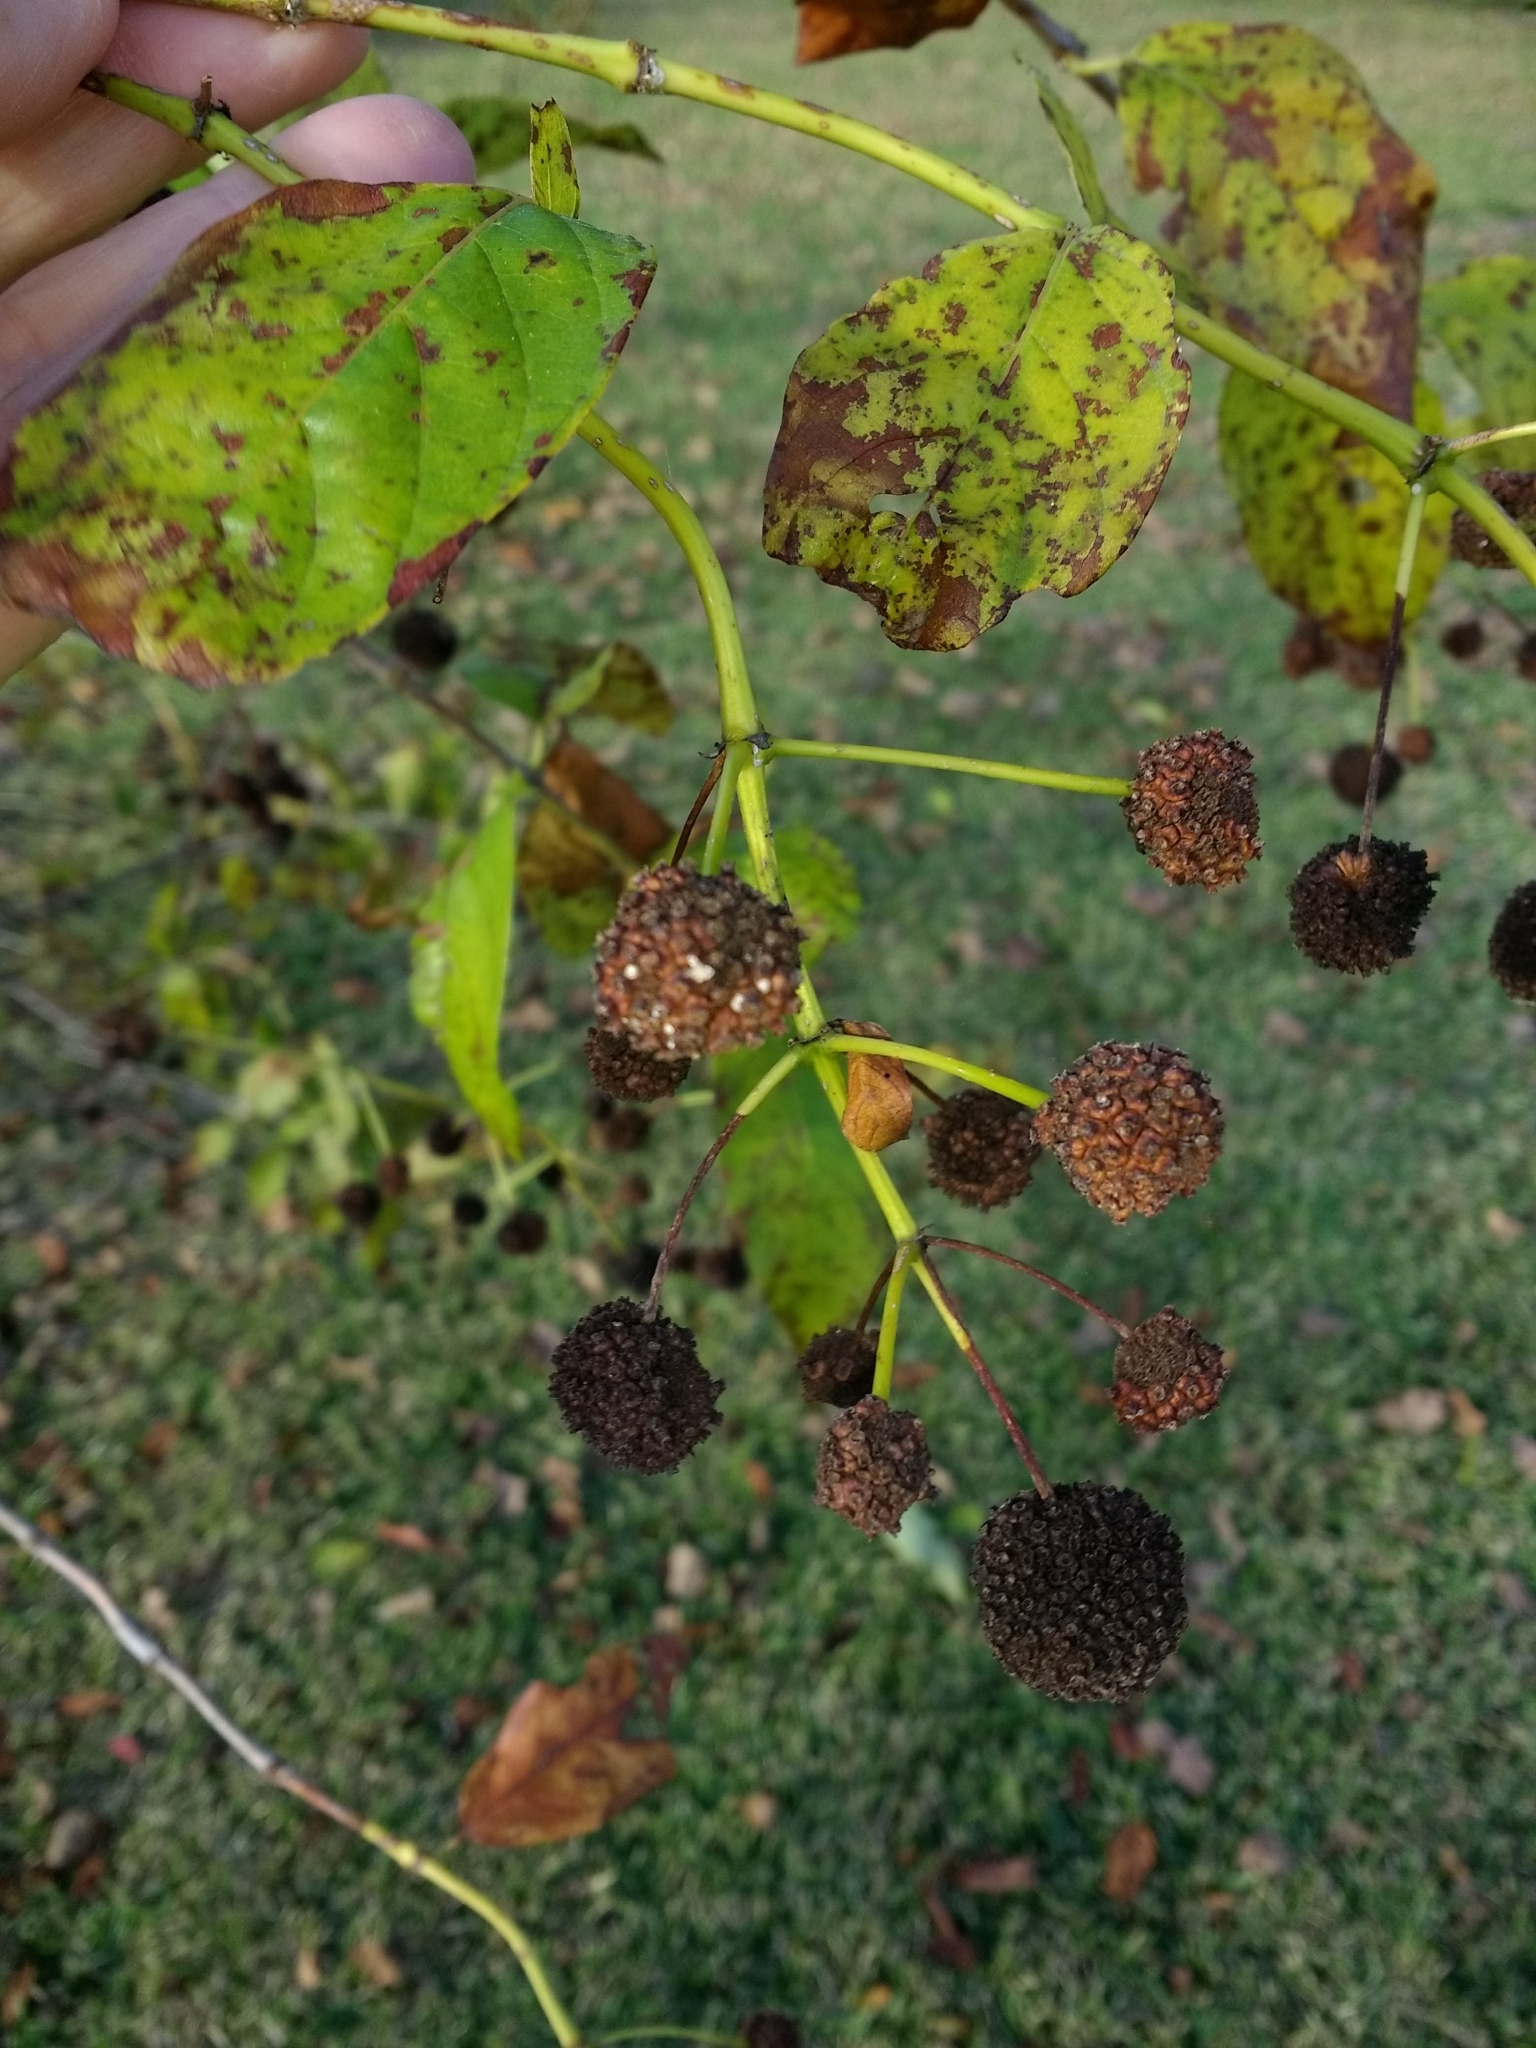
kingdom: Plantae
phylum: Tracheophyta
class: Magnoliopsida
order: Gentianales
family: Rubiaceae
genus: Cephalanthus
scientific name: Cephalanthus occidentalis
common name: Button-willow
